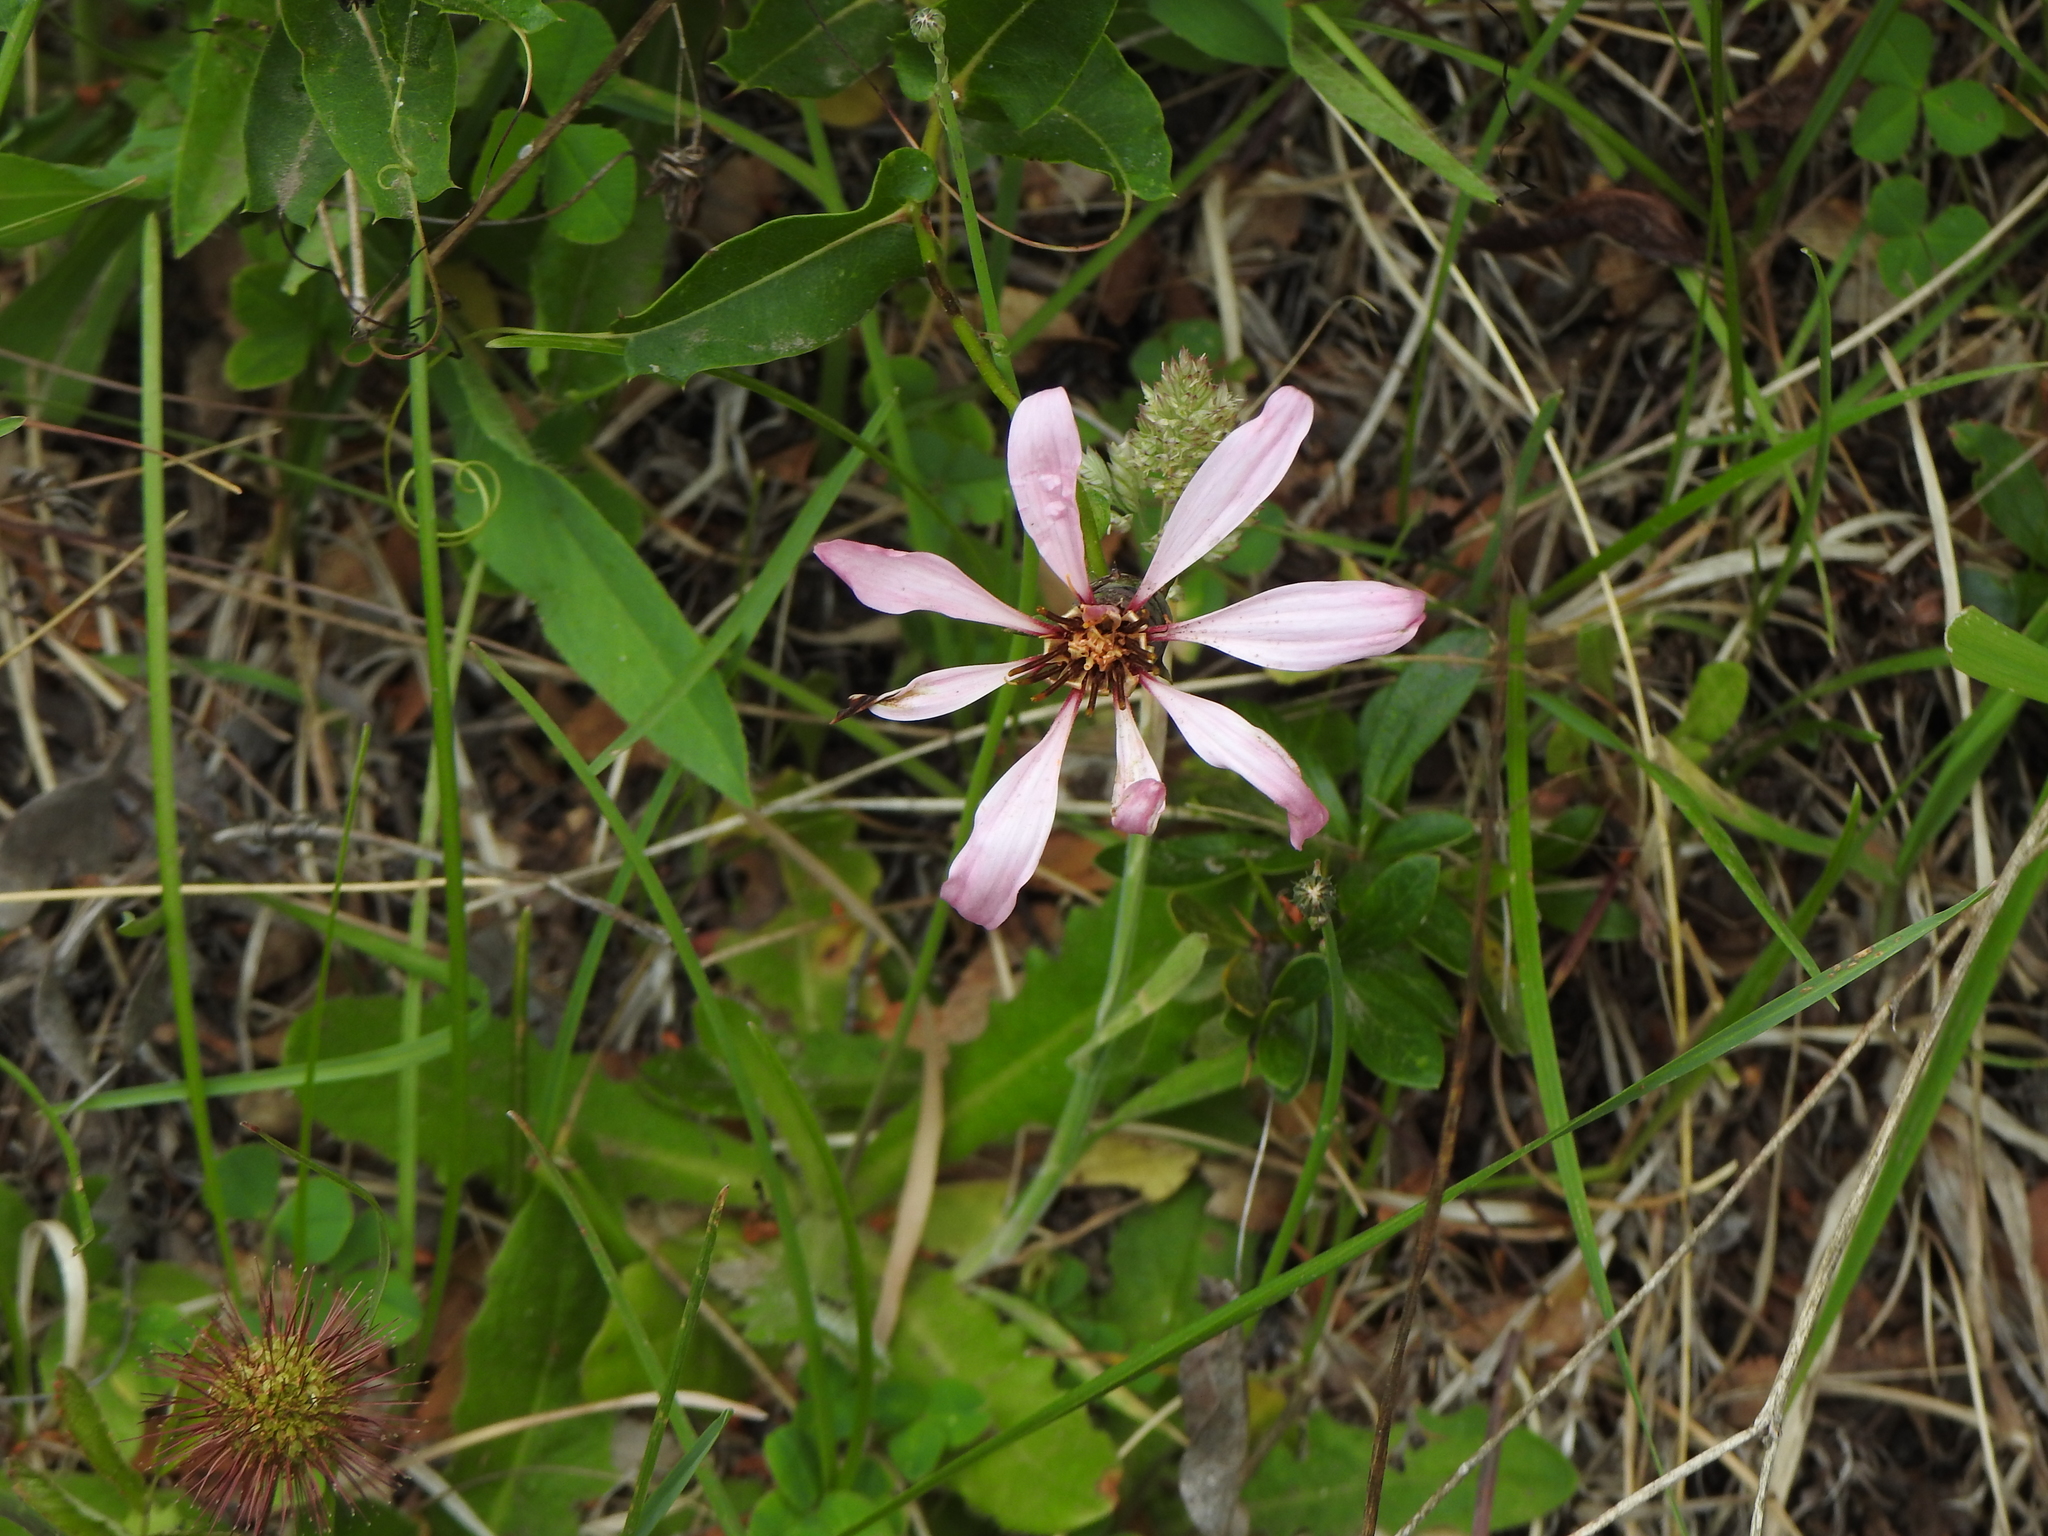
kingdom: Plantae
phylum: Tracheophyta
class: Magnoliopsida
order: Asterales
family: Asteraceae
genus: Mutisia
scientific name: Mutisia spinosa
